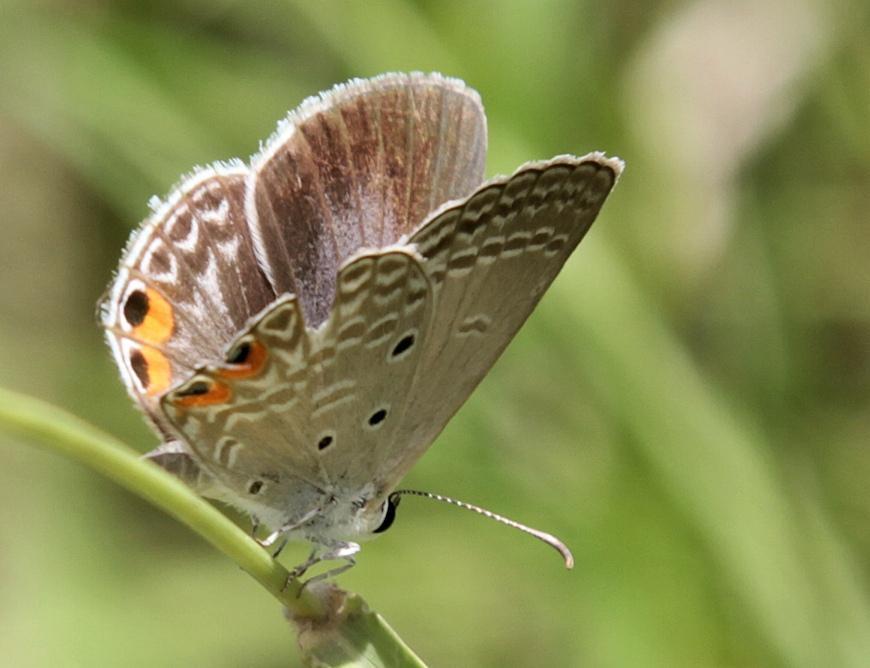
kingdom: Animalia
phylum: Arthropoda
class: Insecta
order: Lepidoptera
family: Lycaenidae
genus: Euchrysops
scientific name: Euchrysops osiris
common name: African blue
